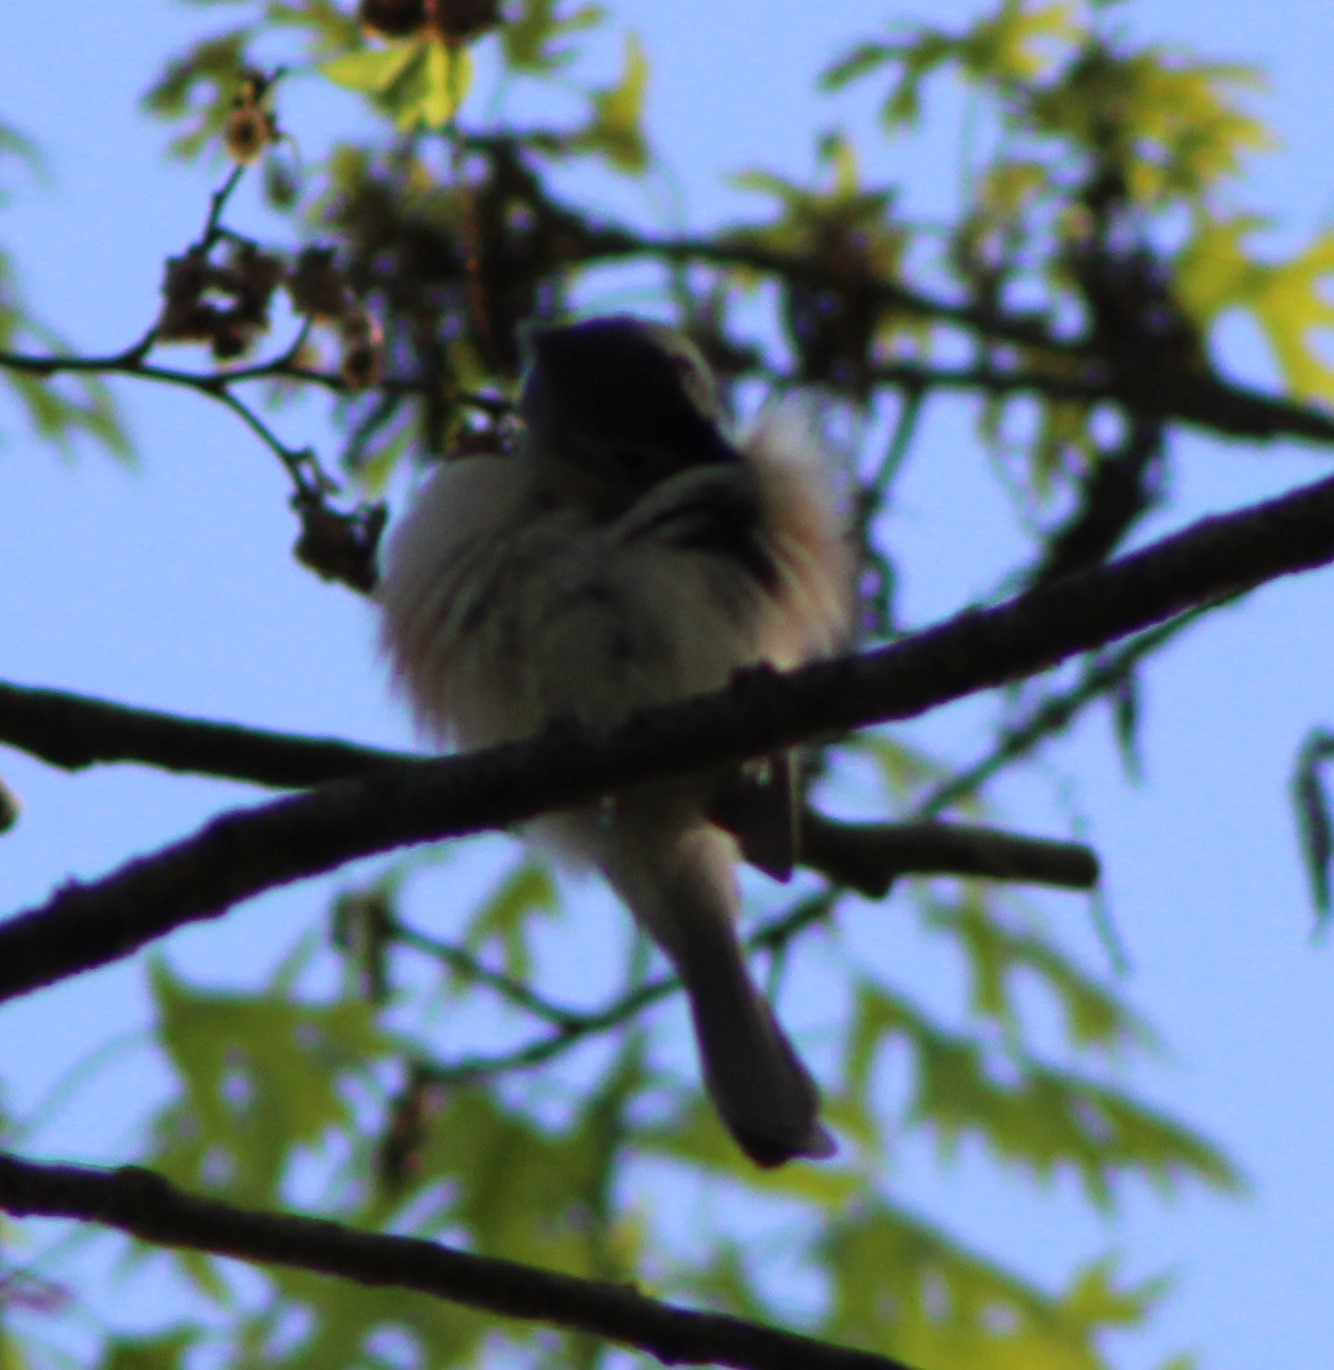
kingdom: Animalia
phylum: Chordata
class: Aves
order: Passeriformes
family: Paridae
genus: Baeolophus
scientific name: Baeolophus bicolor
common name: Tufted titmouse
